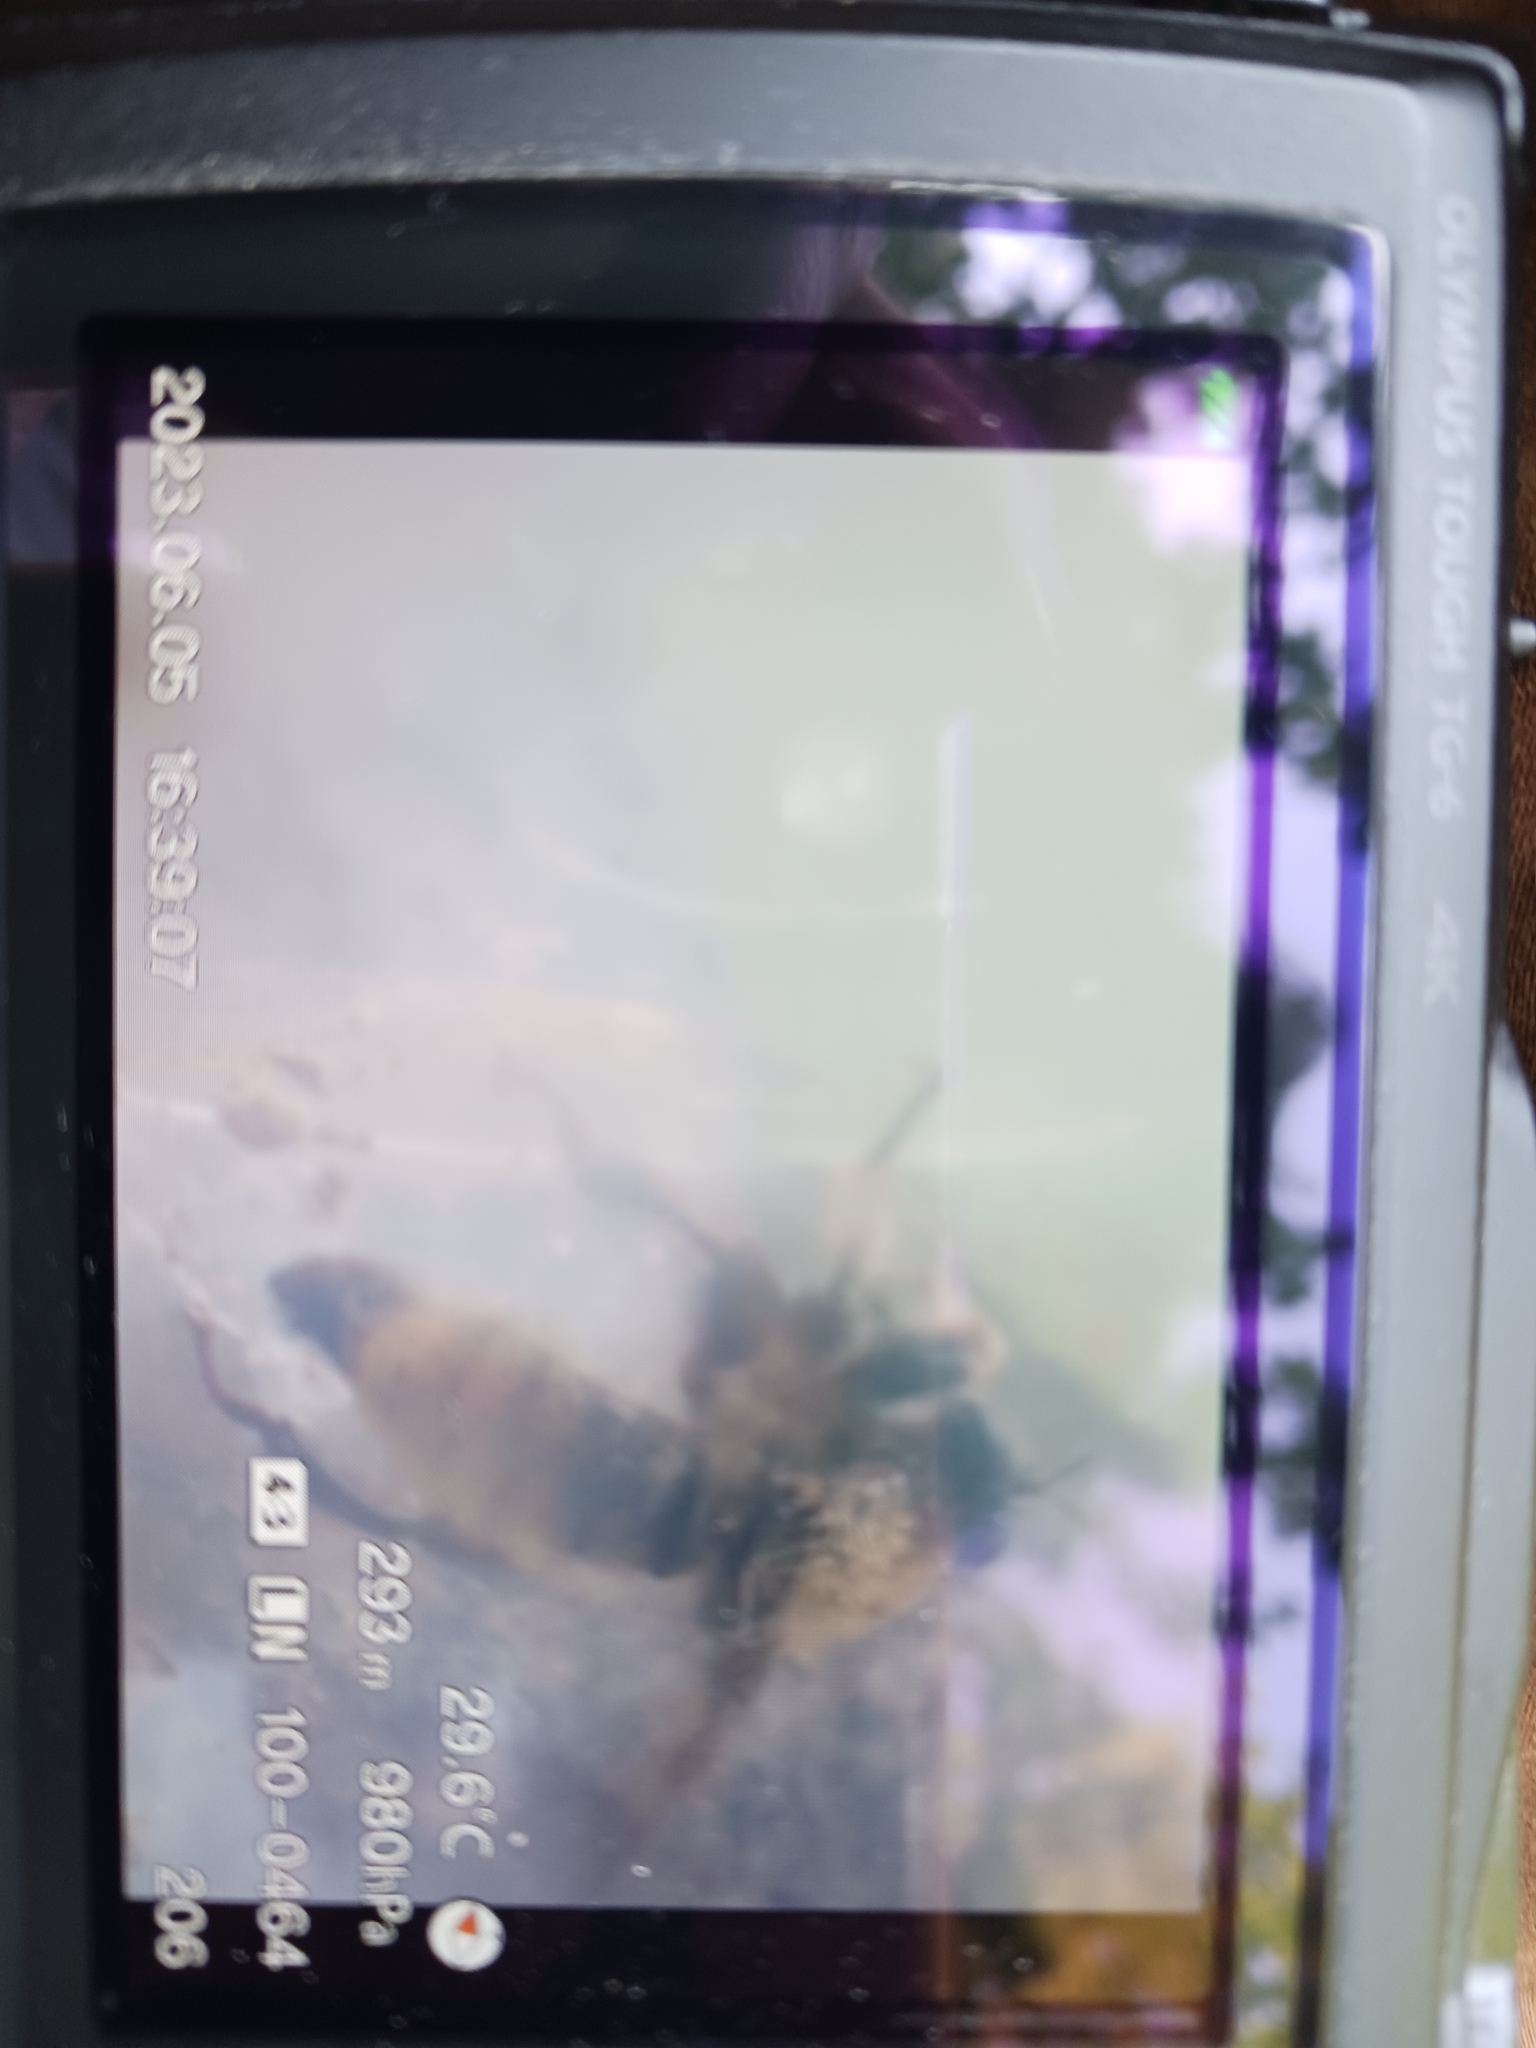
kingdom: Animalia
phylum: Arthropoda
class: Insecta
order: Diptera
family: Asilidae
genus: Laphria
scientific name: Laphria flava
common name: Bumblebee robberfly
